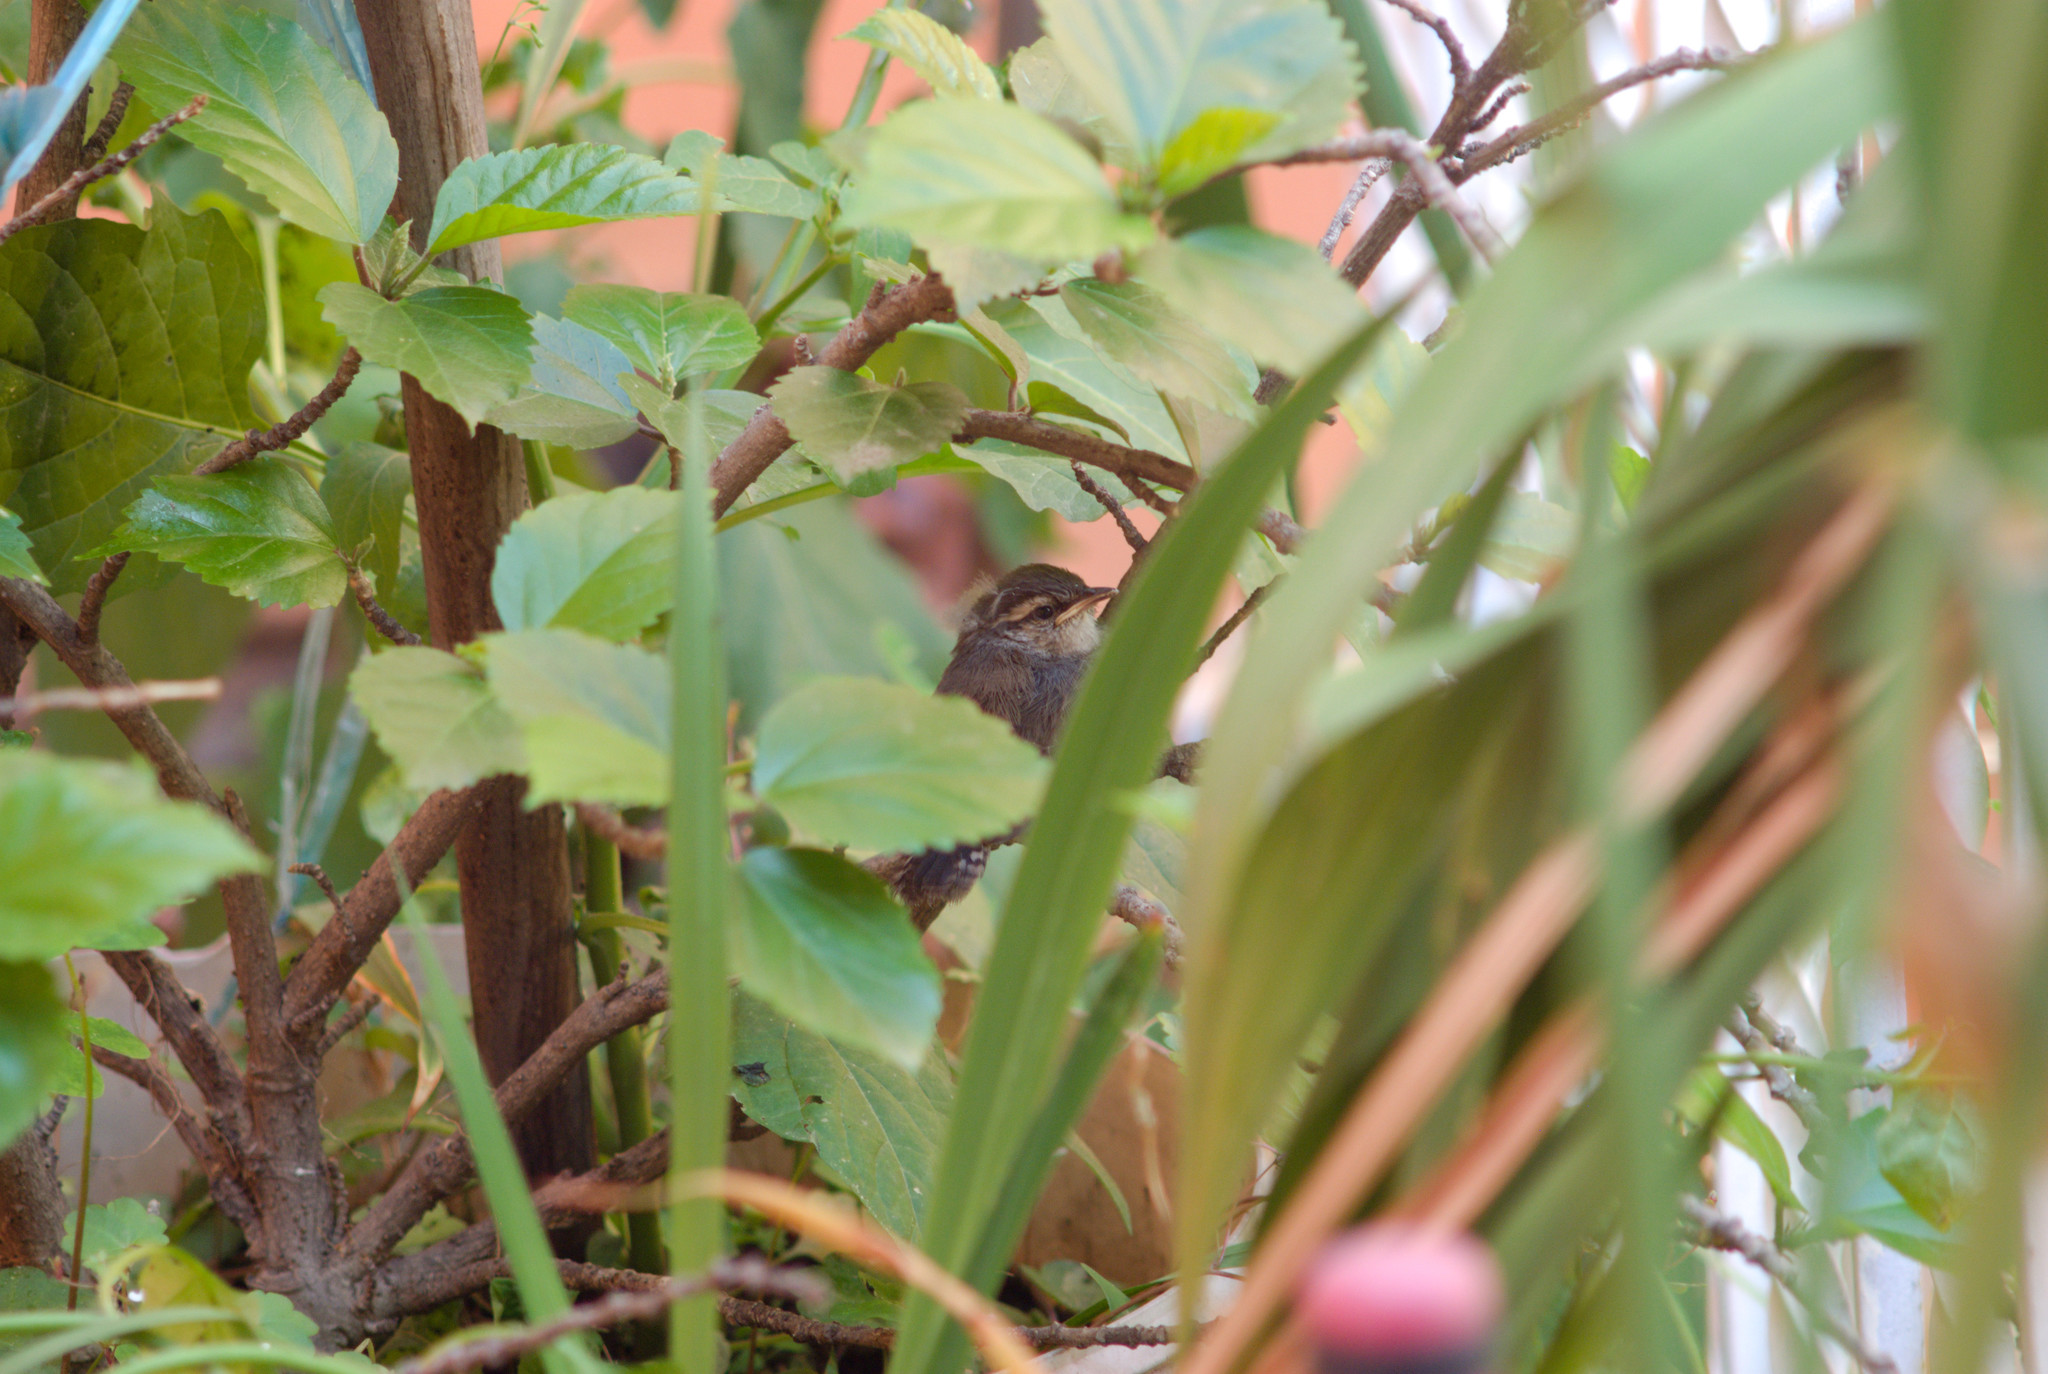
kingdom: Animalia
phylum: Chordata
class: Aves
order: Passeriformes
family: Troglodytidae
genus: Thryomanes
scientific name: Thryomanes bewickii
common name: Bewick's wren
